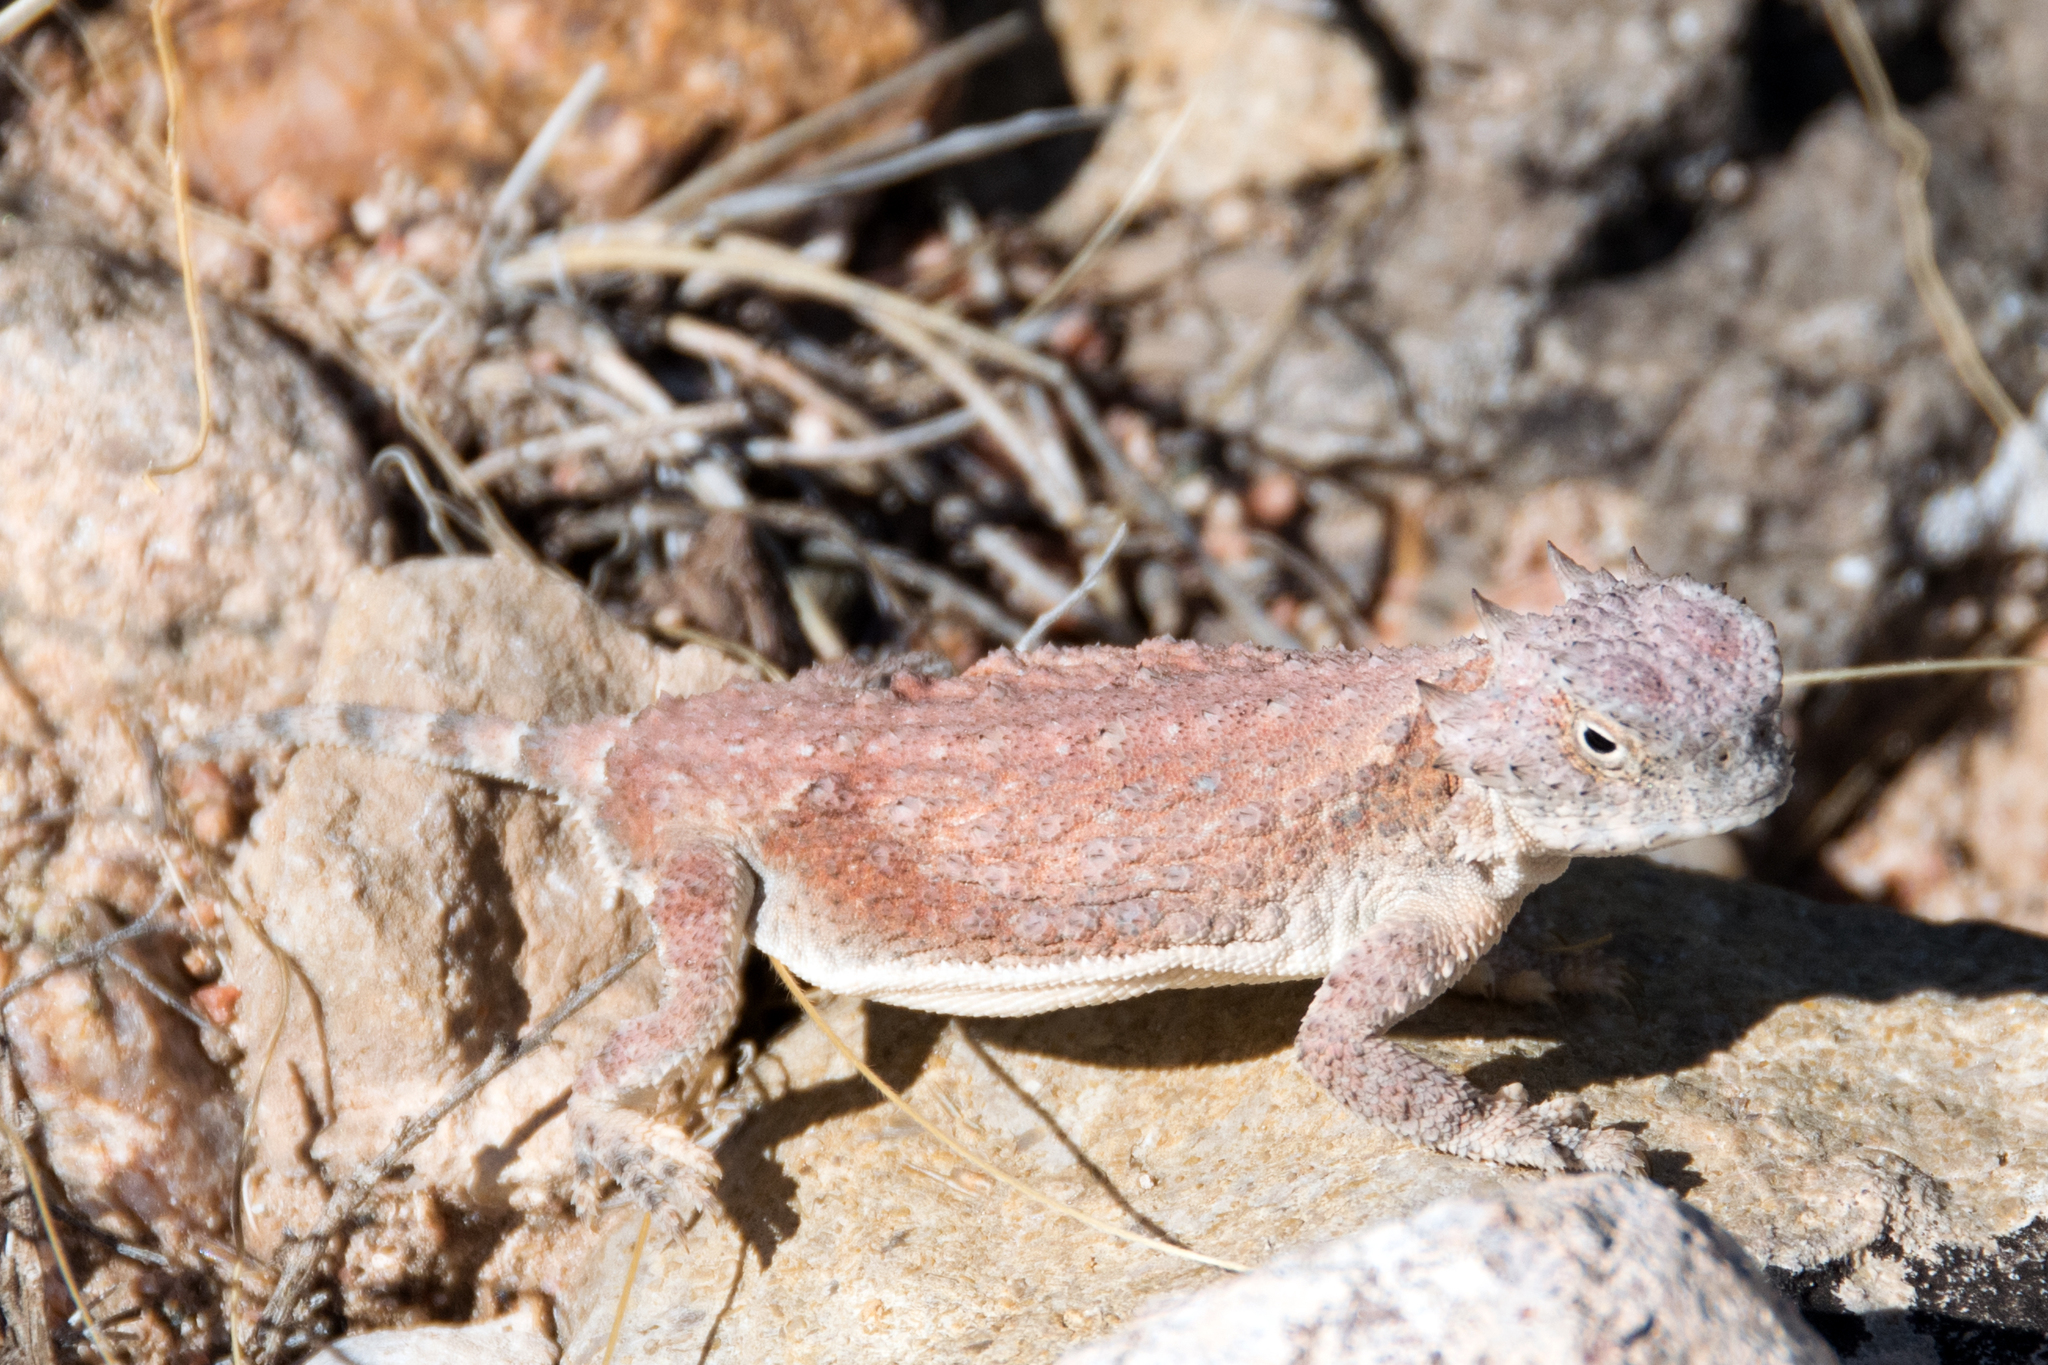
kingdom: Animalia
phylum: Chordata
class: Squamata
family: Phrynosomatidae
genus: Phrynosoma
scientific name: Phrynosoma modestum
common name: Roundtail horned lizard
